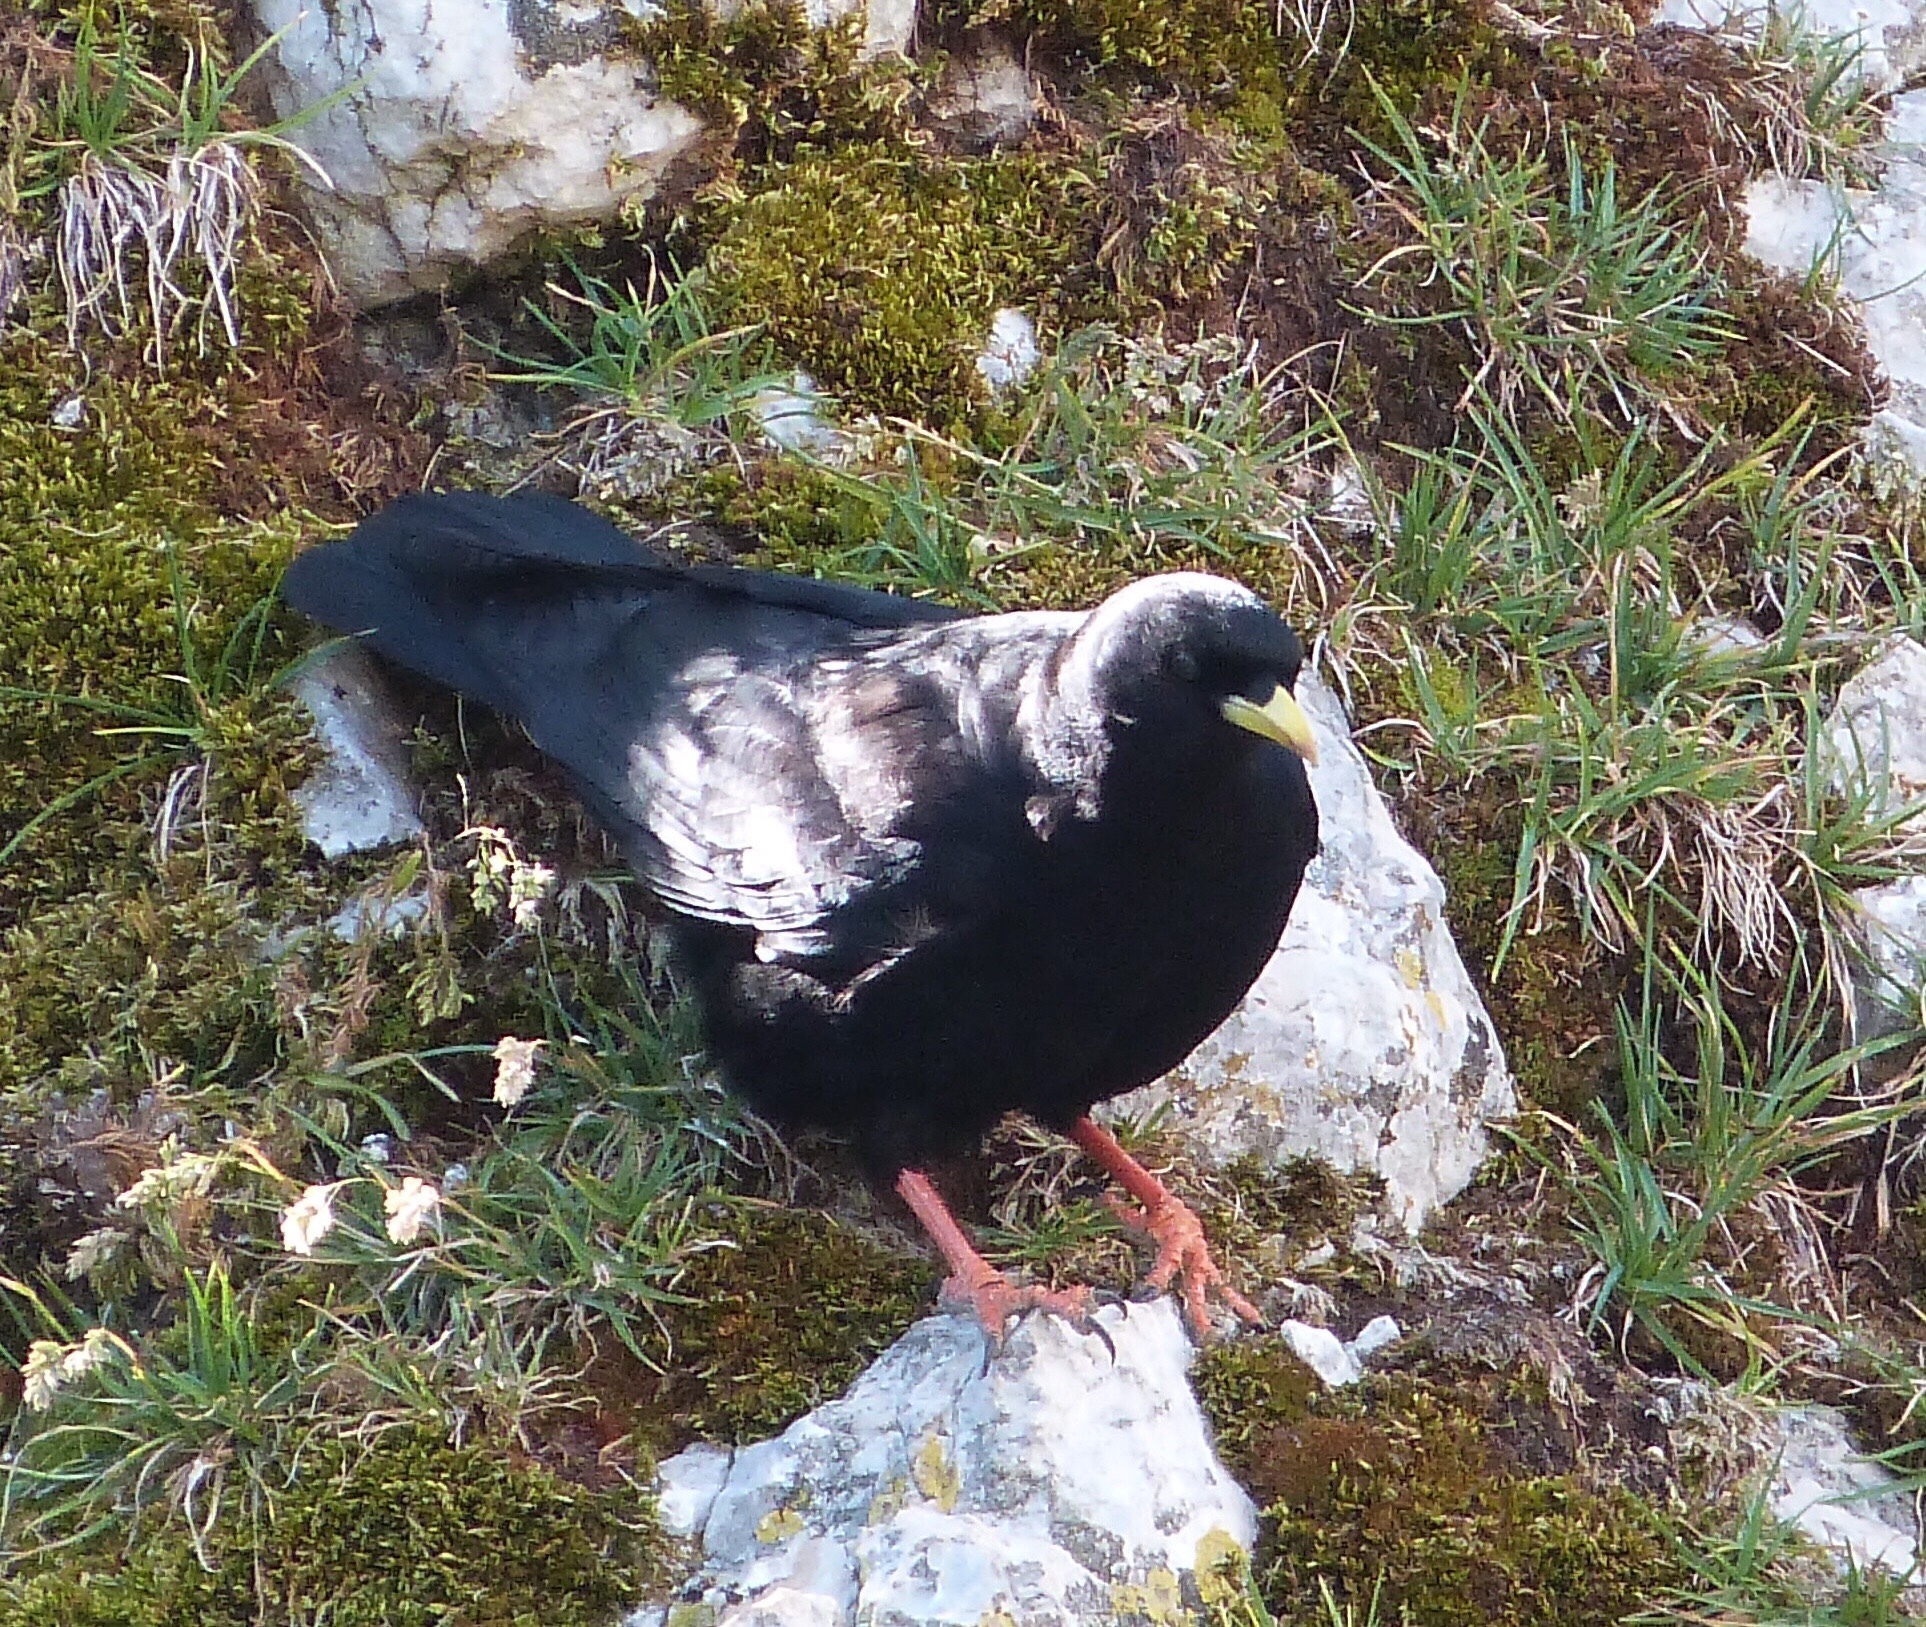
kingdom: Animalia
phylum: Chordata
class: Aves
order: Passeriformes
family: Corvidae
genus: Pyrrhocorax
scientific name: Pyrrhocorax graculus
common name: Alpine chough
